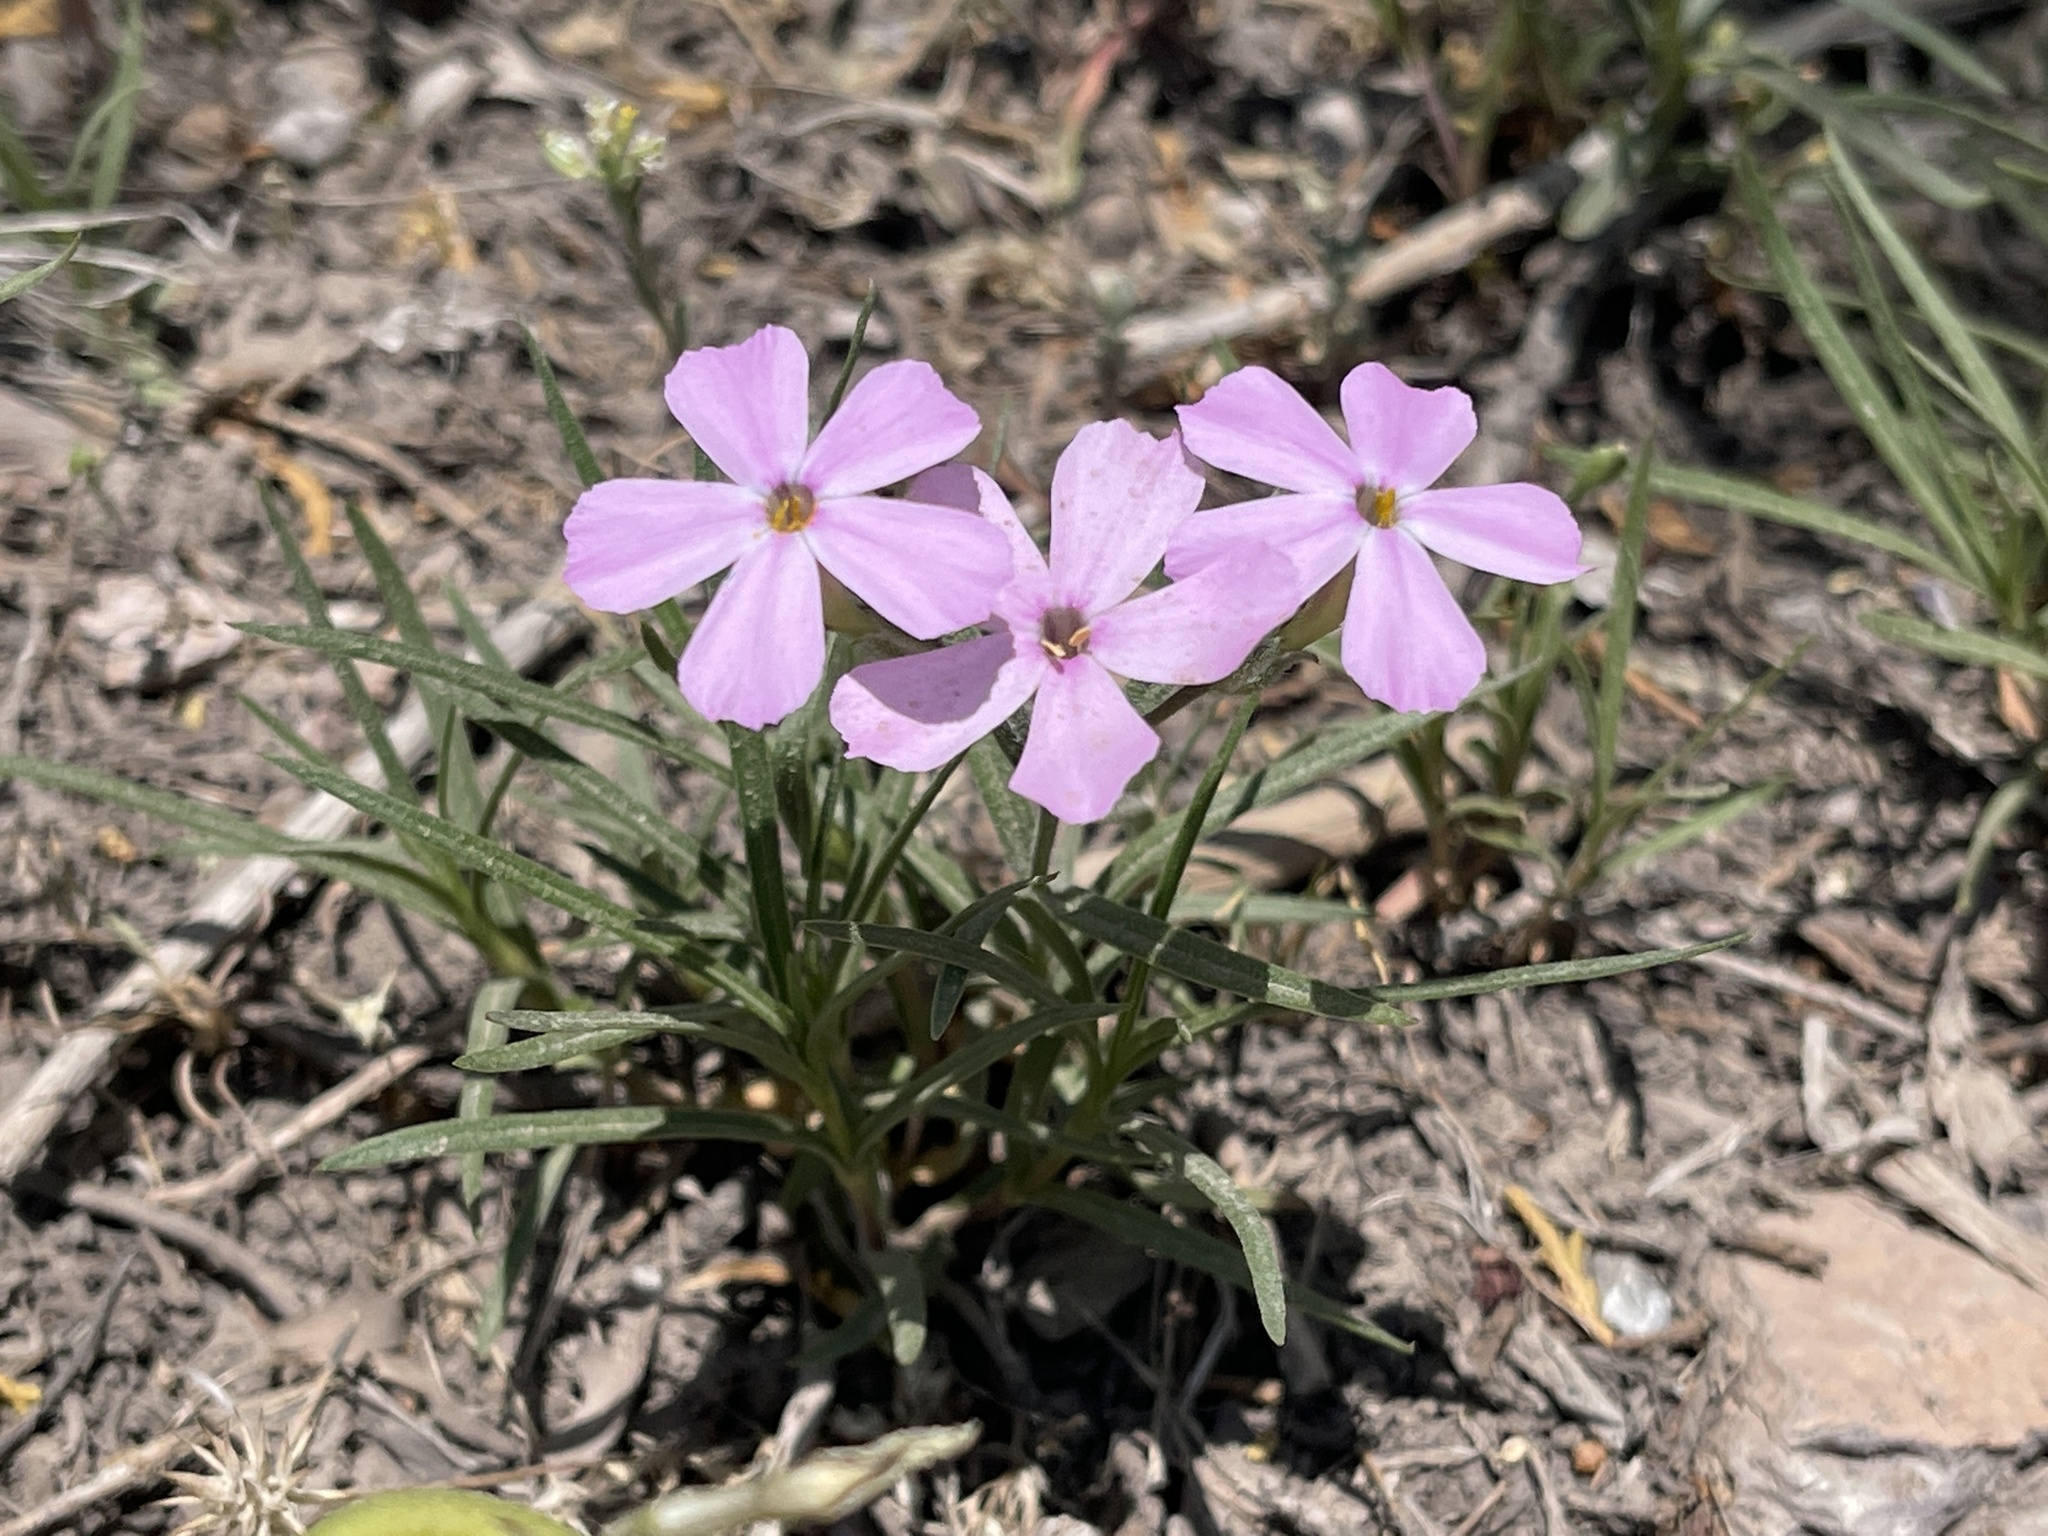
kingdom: Plantae
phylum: Tracheophyta
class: Magnoliopsida
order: Ericales
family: Polemoniaceae
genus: Phlox
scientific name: Phlox longifolia
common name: Longleaf phlox
